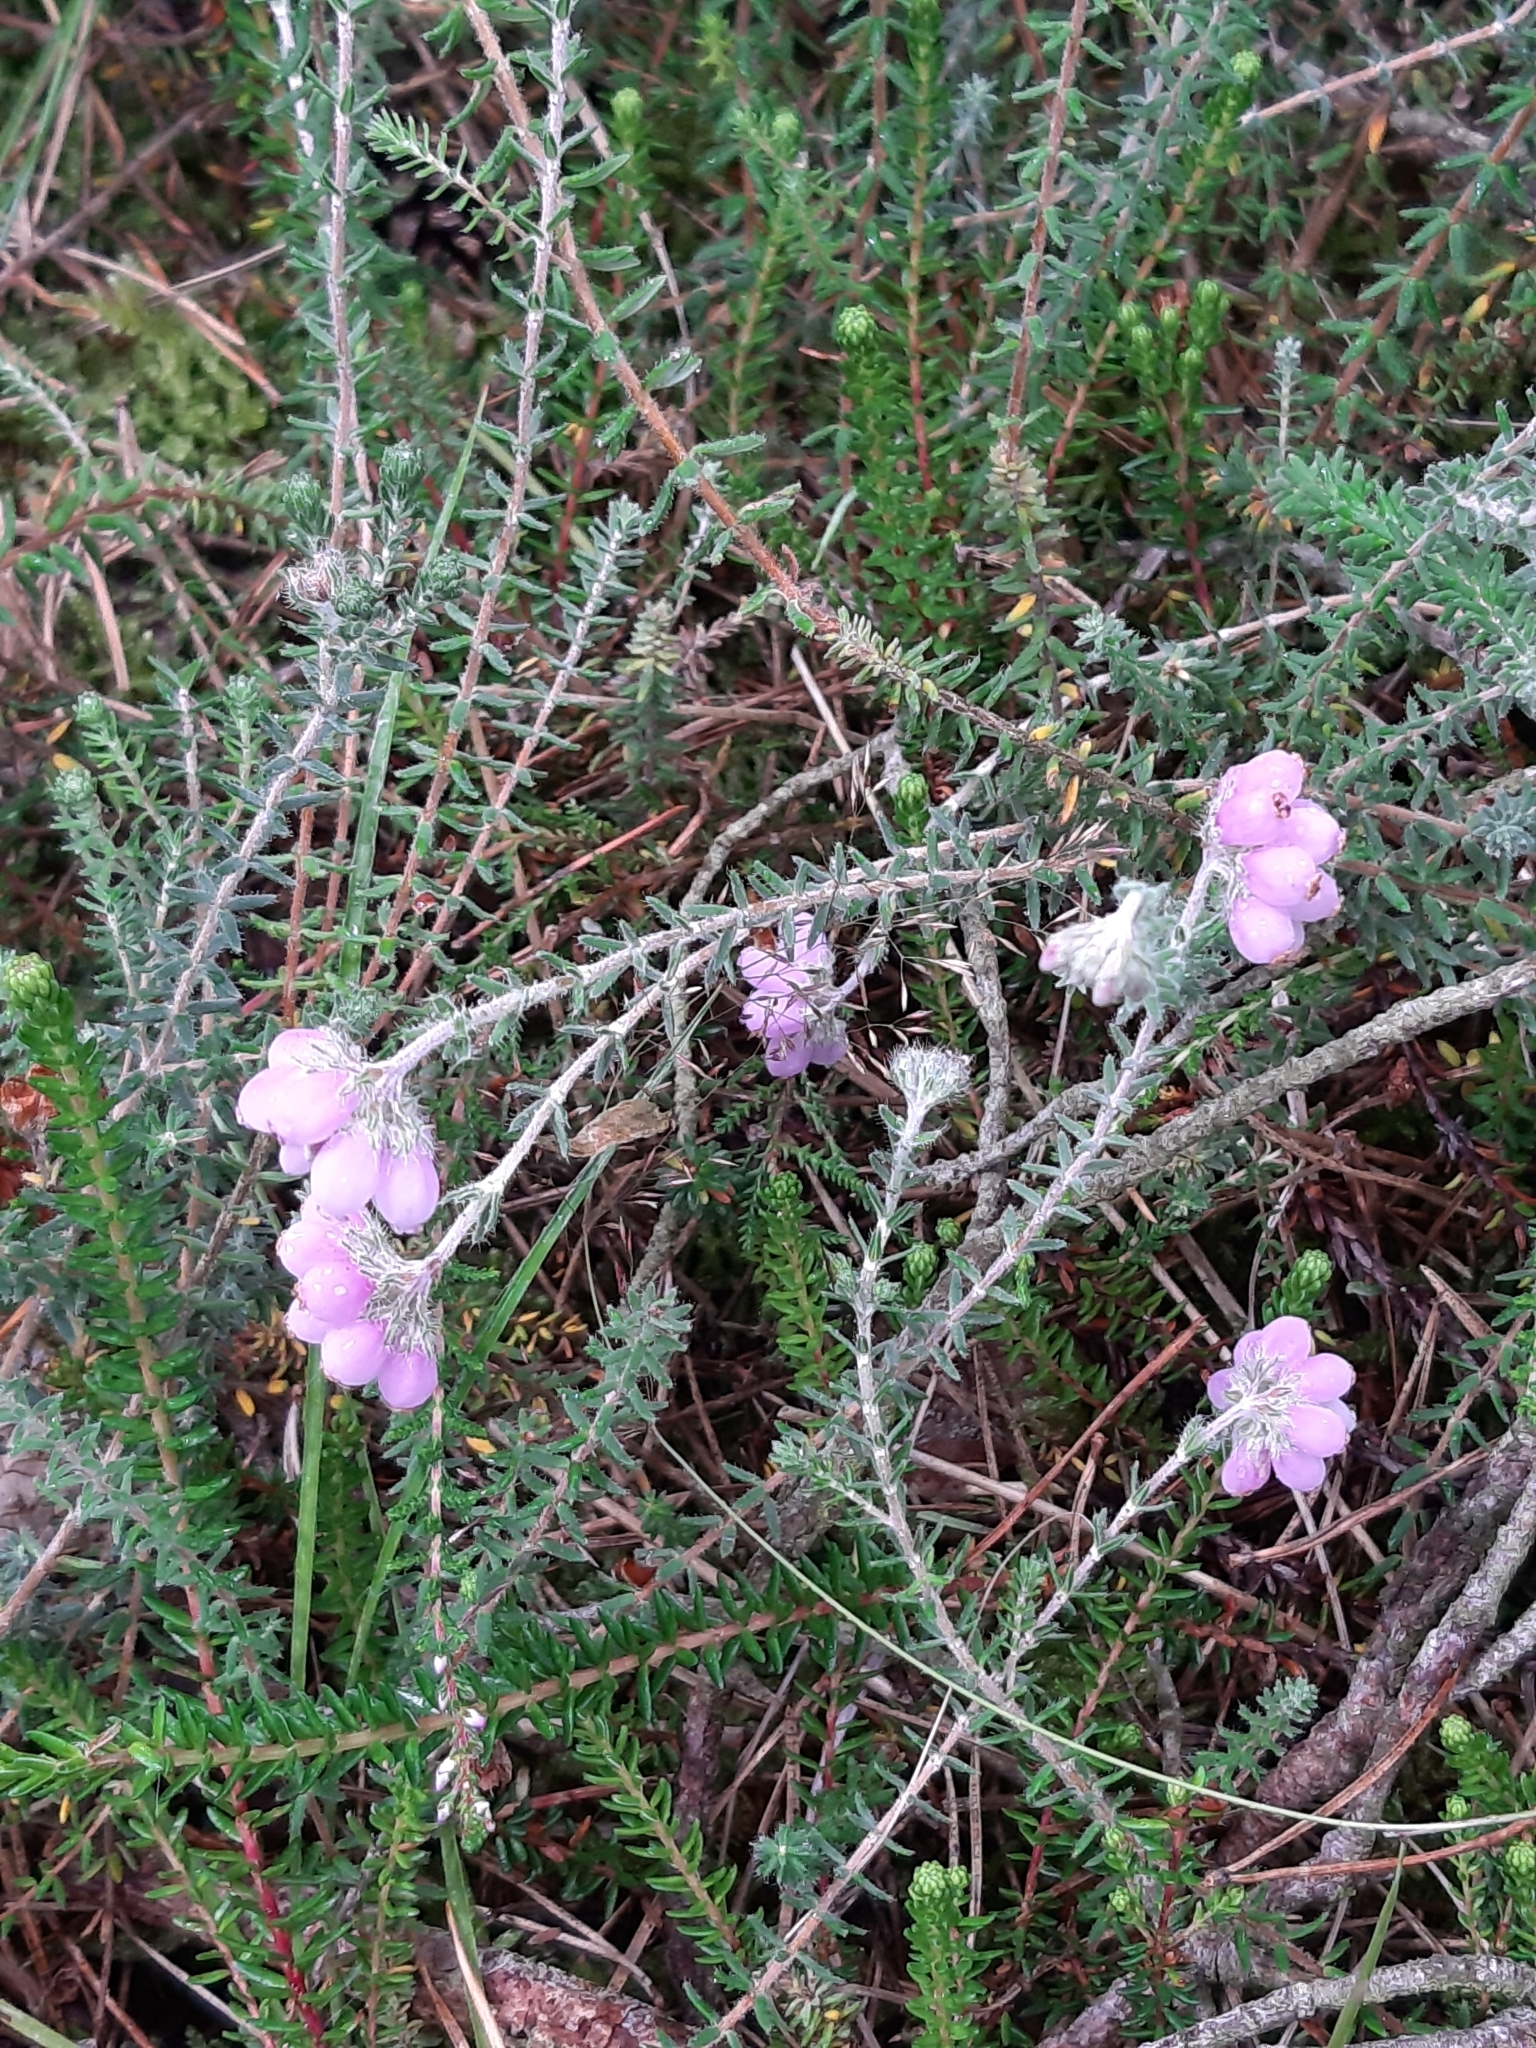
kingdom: Plantae
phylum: Tracheophyta
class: Magnoliopsida
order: Ericales
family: Ericaceae
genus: Erica
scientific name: Erica tetralix
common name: Cross-leaved heath
